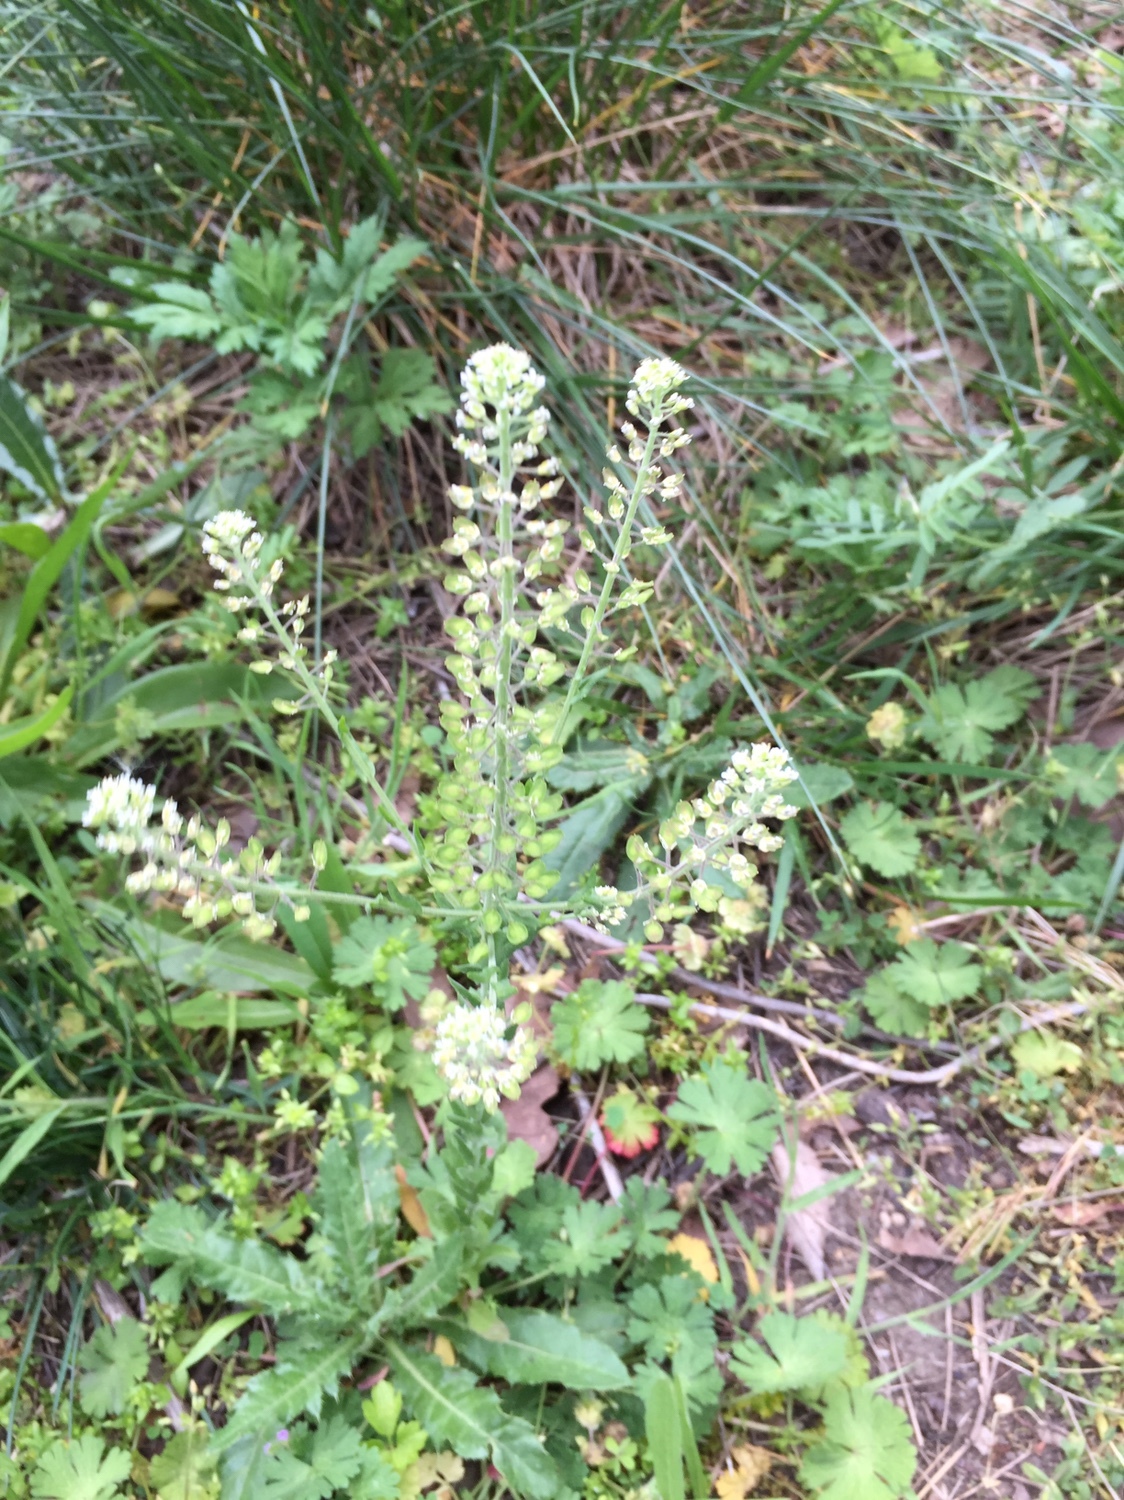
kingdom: Plantae
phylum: Tracheophyta
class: Magnoliopsida
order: Brassicales
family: Brassicaceae
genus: Lepidium
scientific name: Lepidium campestre
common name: Field pepperwort
